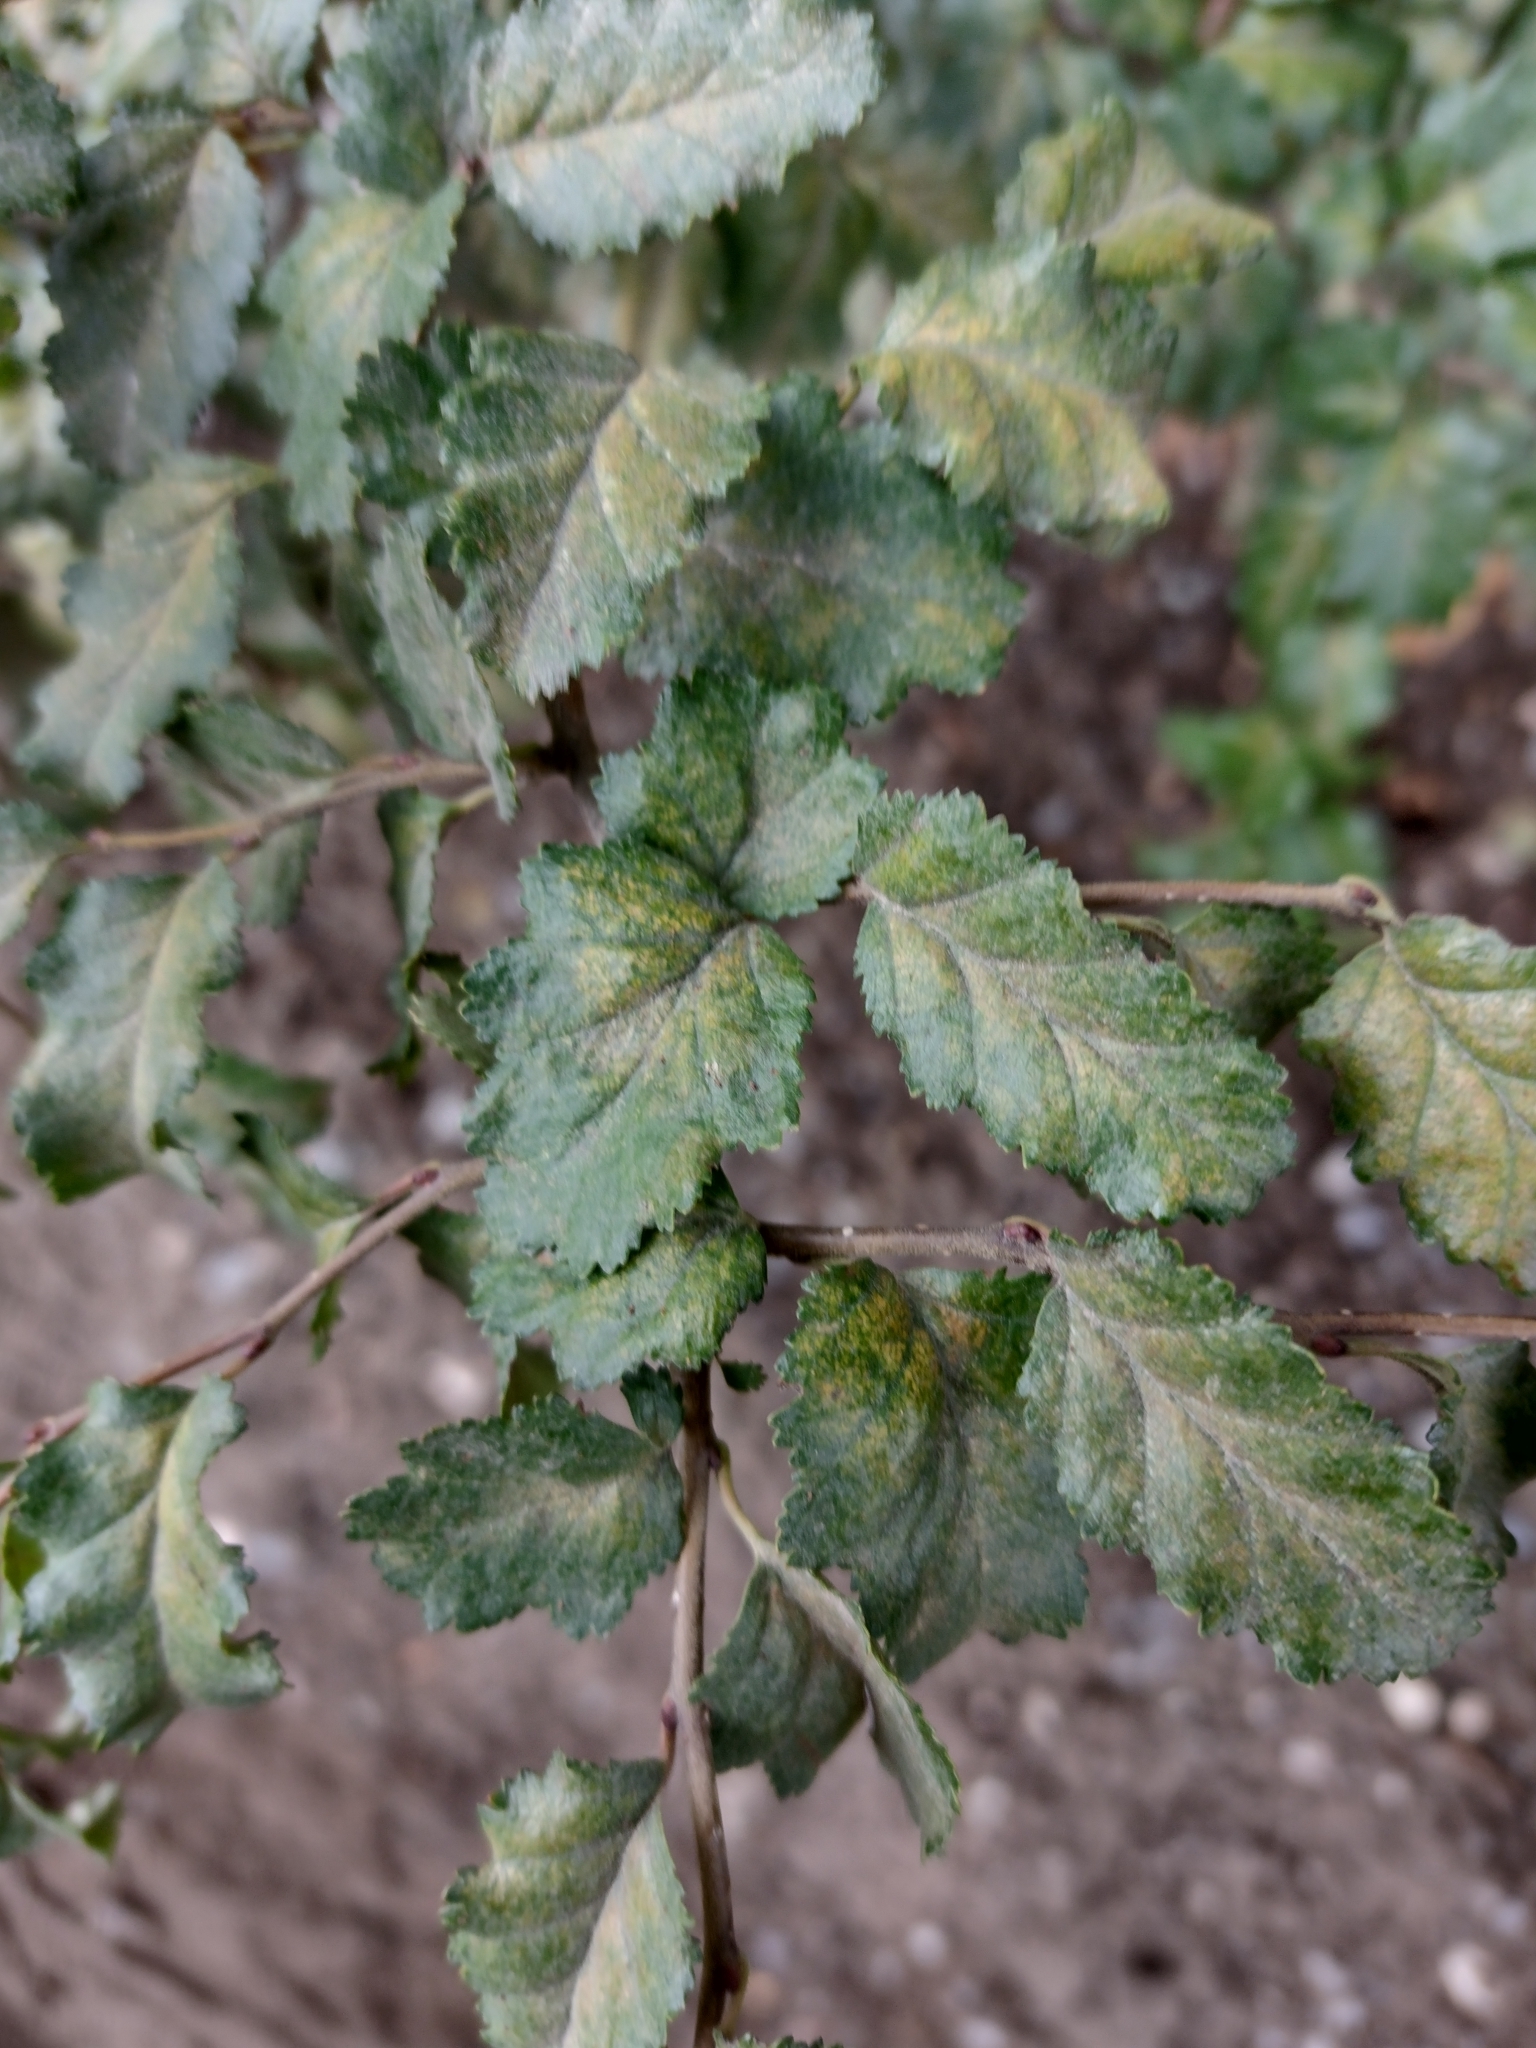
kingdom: Plantae
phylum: Tracheophyta
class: Magnoliopsida
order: Fagales
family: Nothofagaceae
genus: Nothofagus
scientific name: Nothofagus antarctica
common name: Antarctic beech
